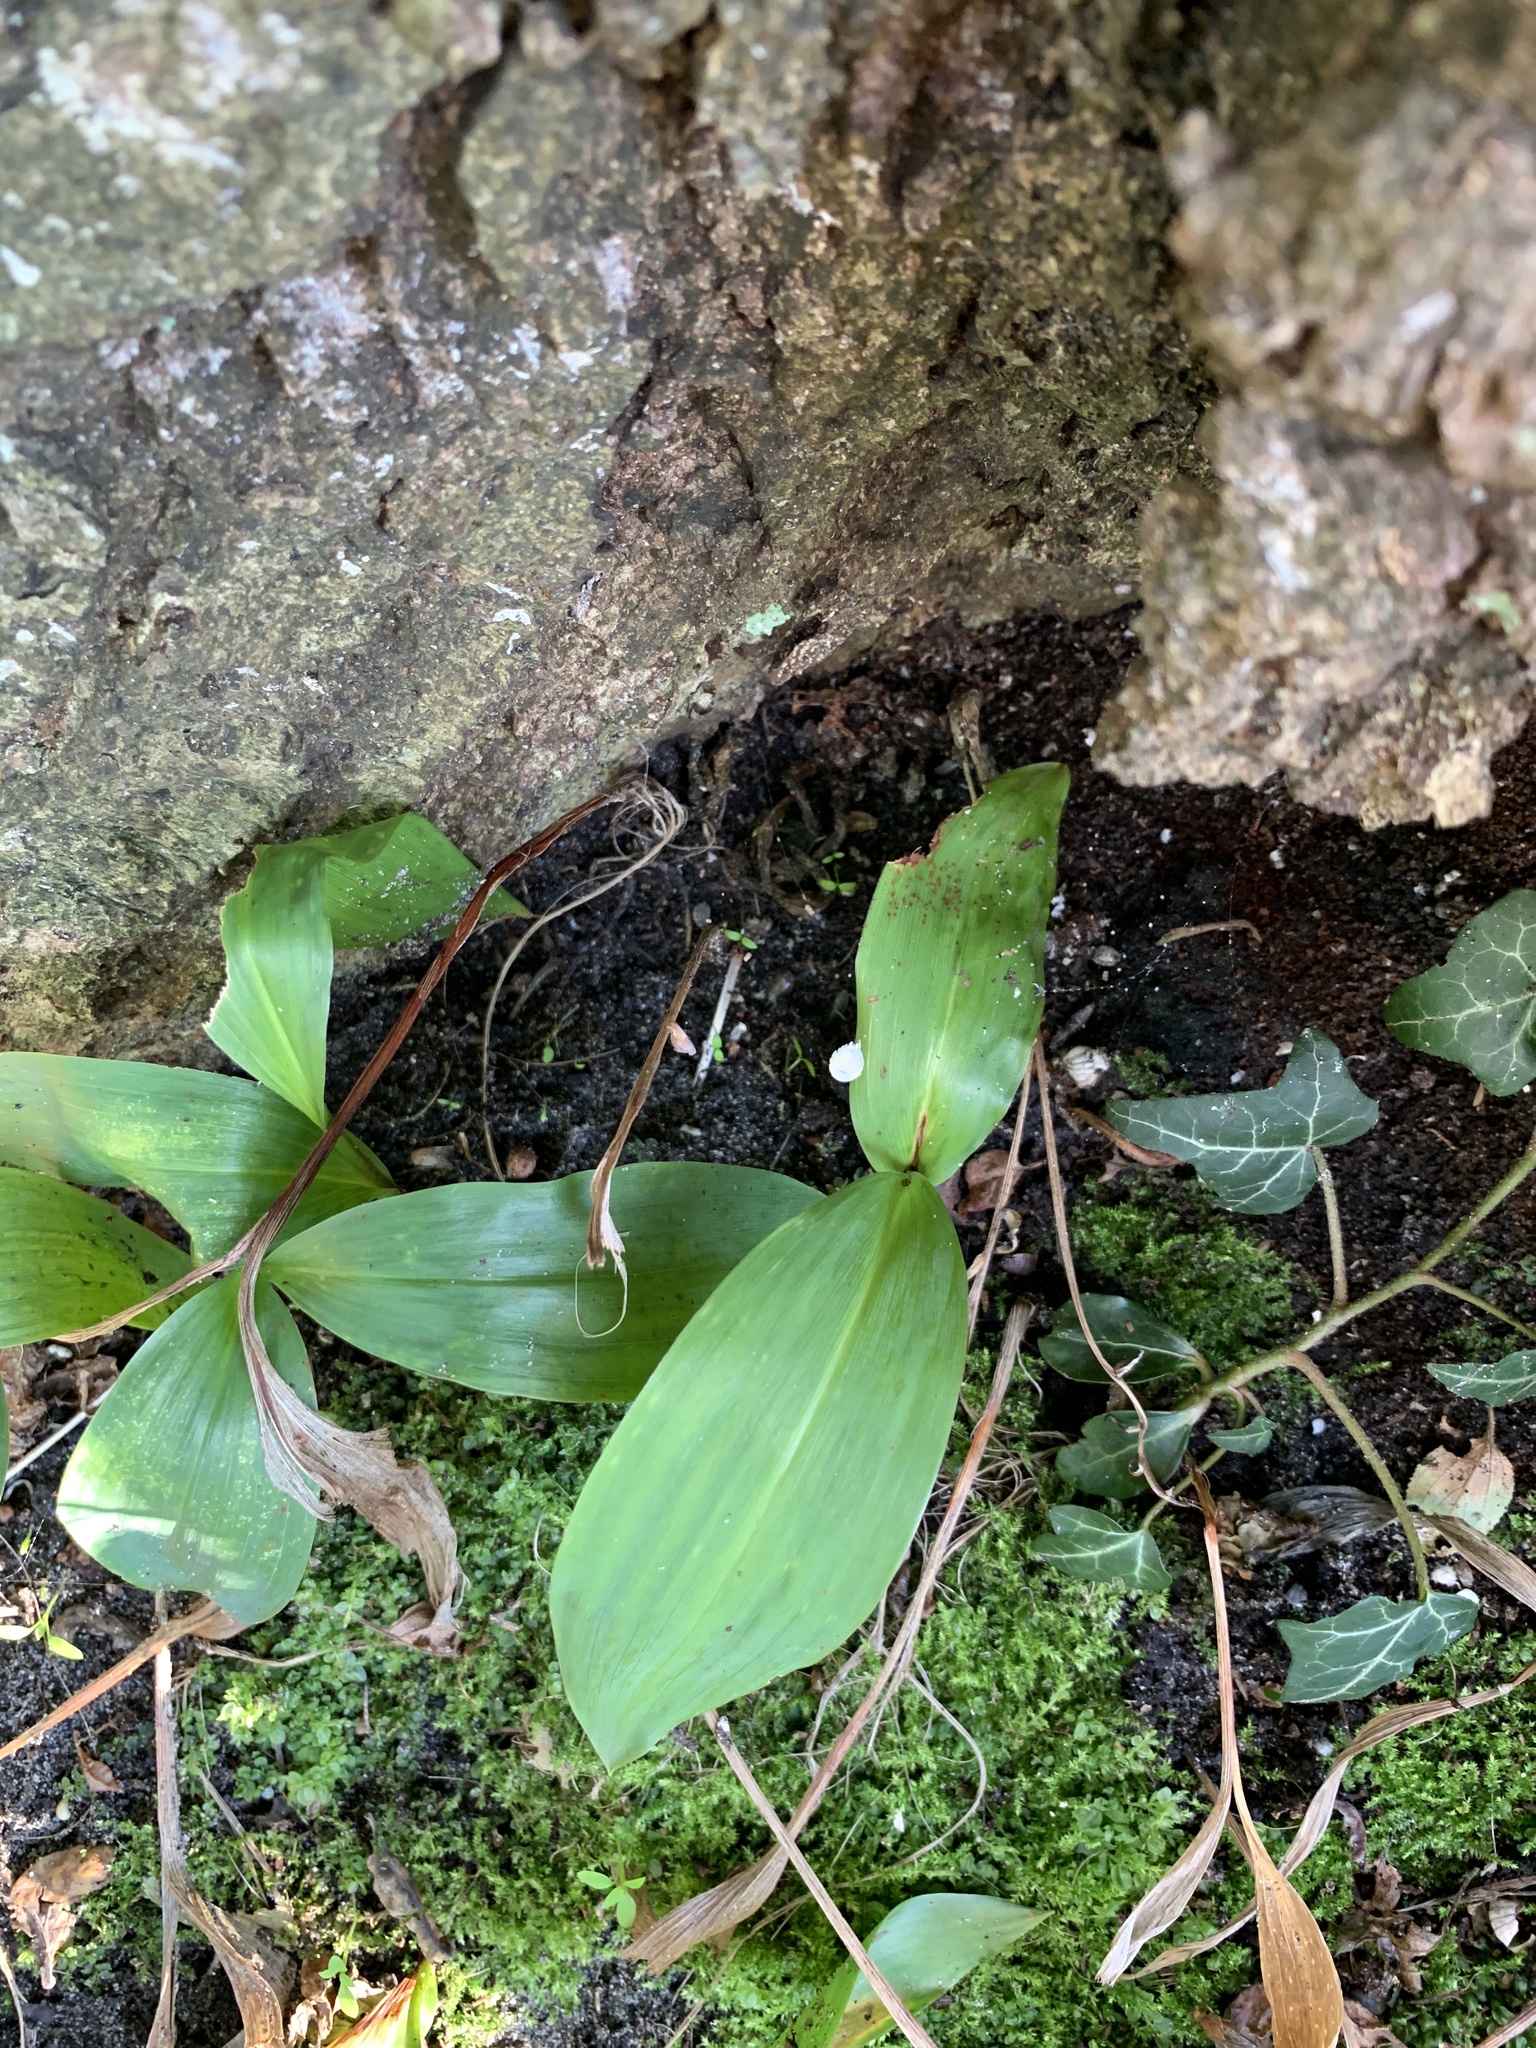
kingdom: Plantae
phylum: Tracheophyta
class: Liliopsida
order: Asparagales
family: Asparagaceae
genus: Convallaria
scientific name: Convallaria majalis
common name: Lily-of-the-valley
